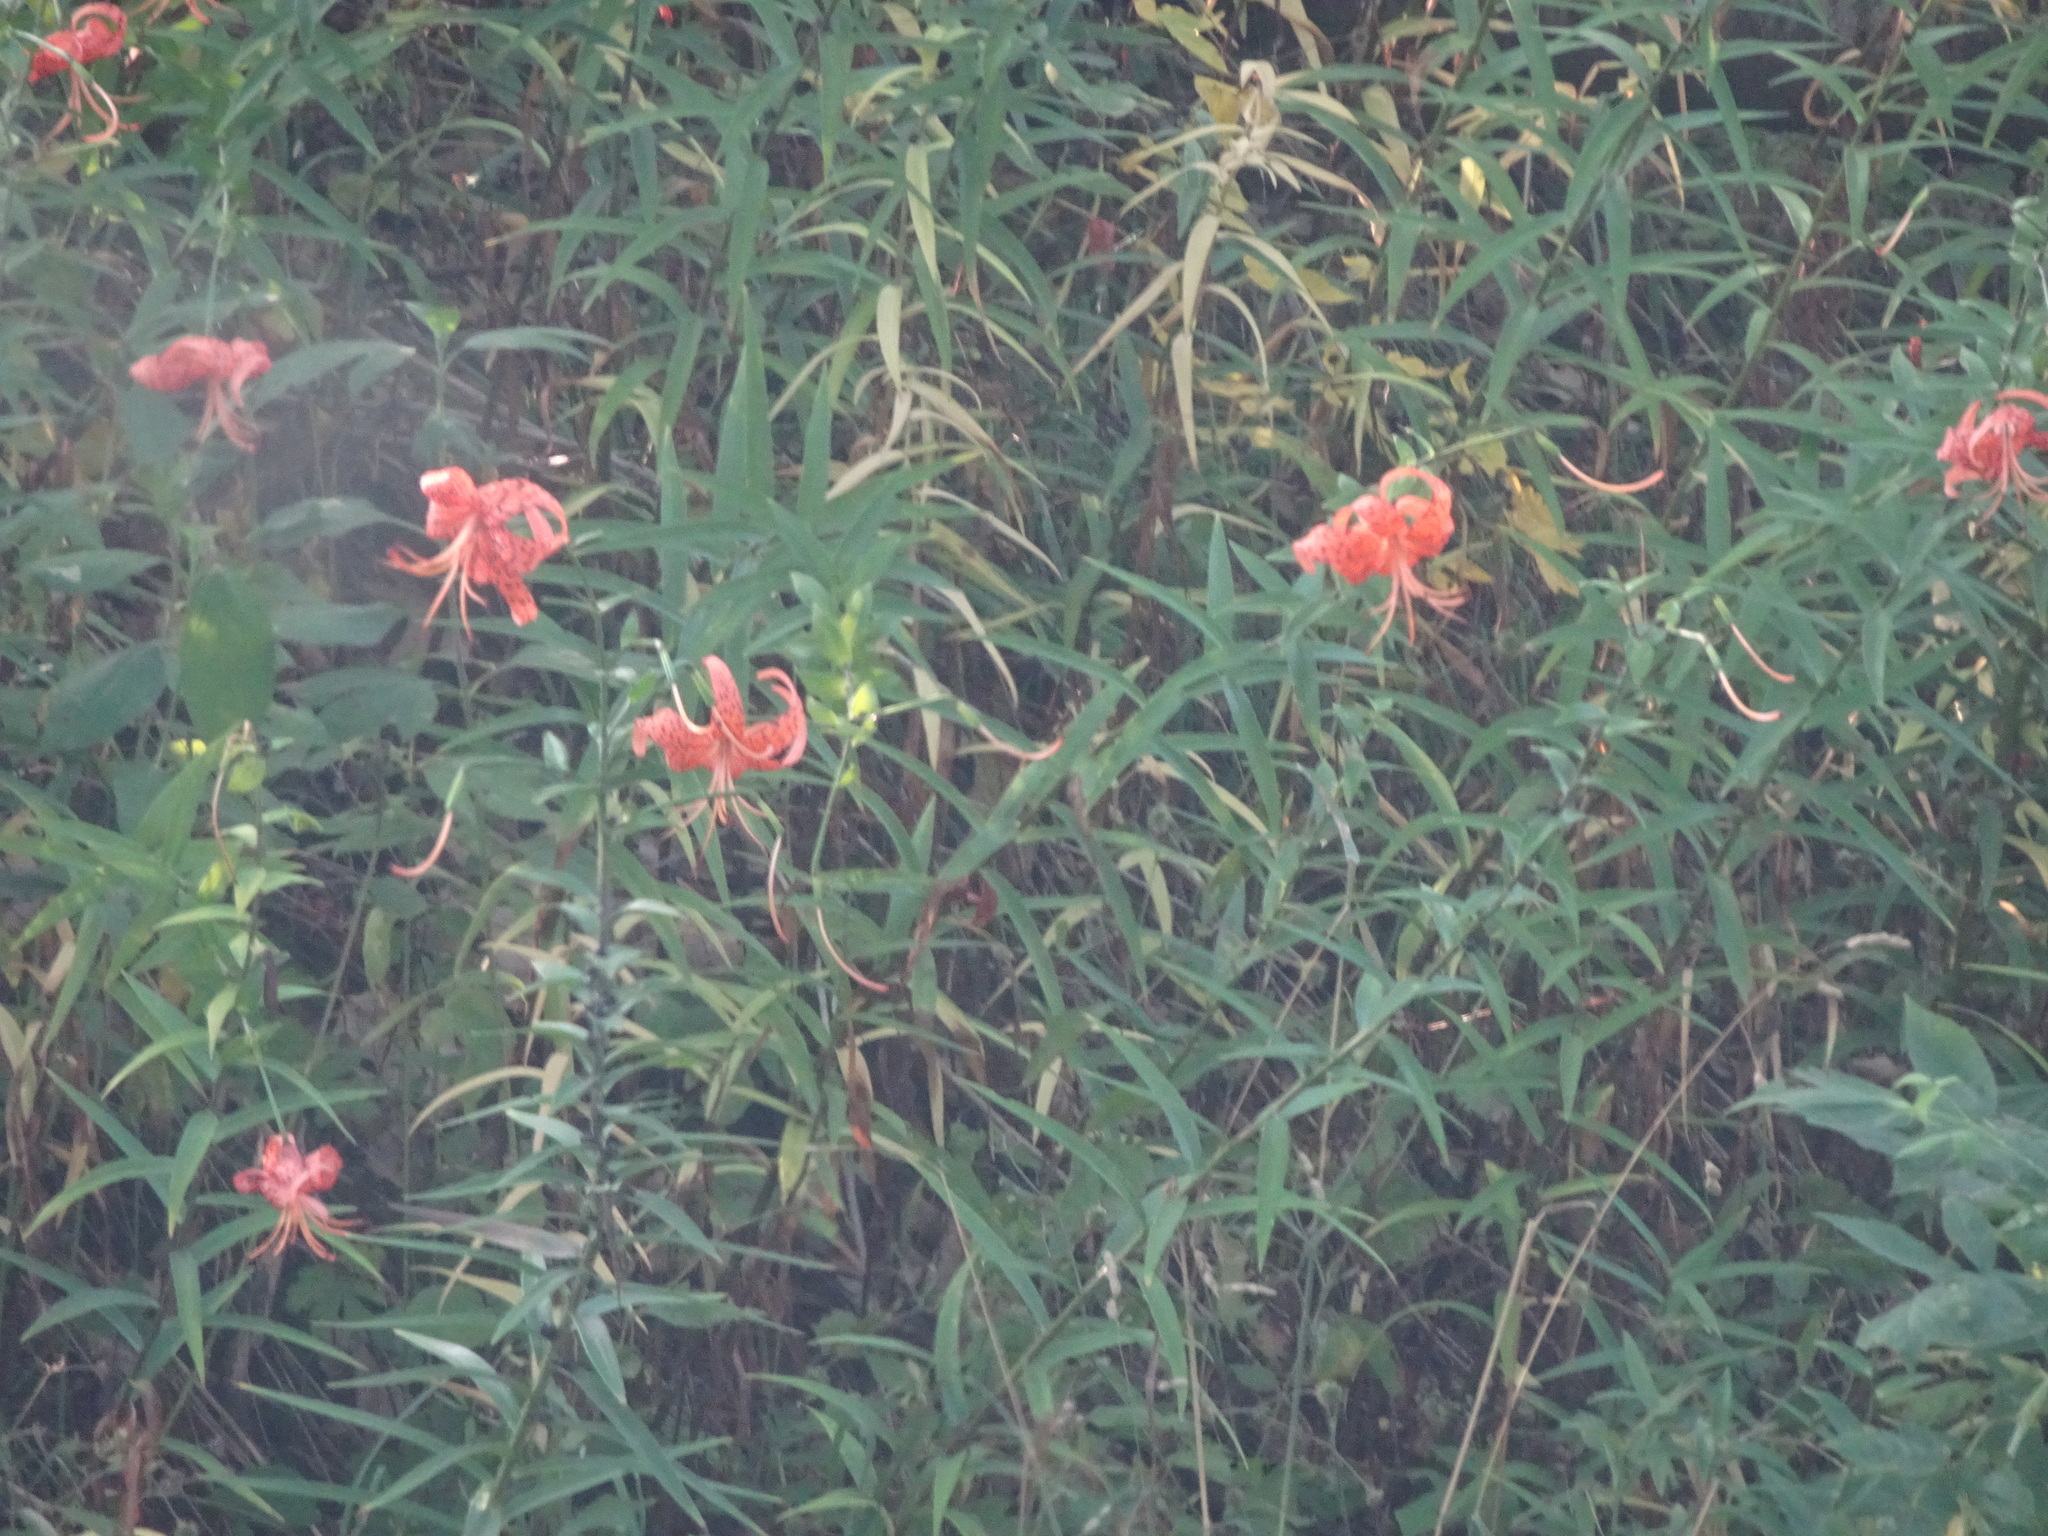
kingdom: Plantae
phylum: Tracheophyta
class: Liliopsida
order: Liliales
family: Liliaceae
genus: Lilium
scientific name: Lilium michiganense
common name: Michigan lily
